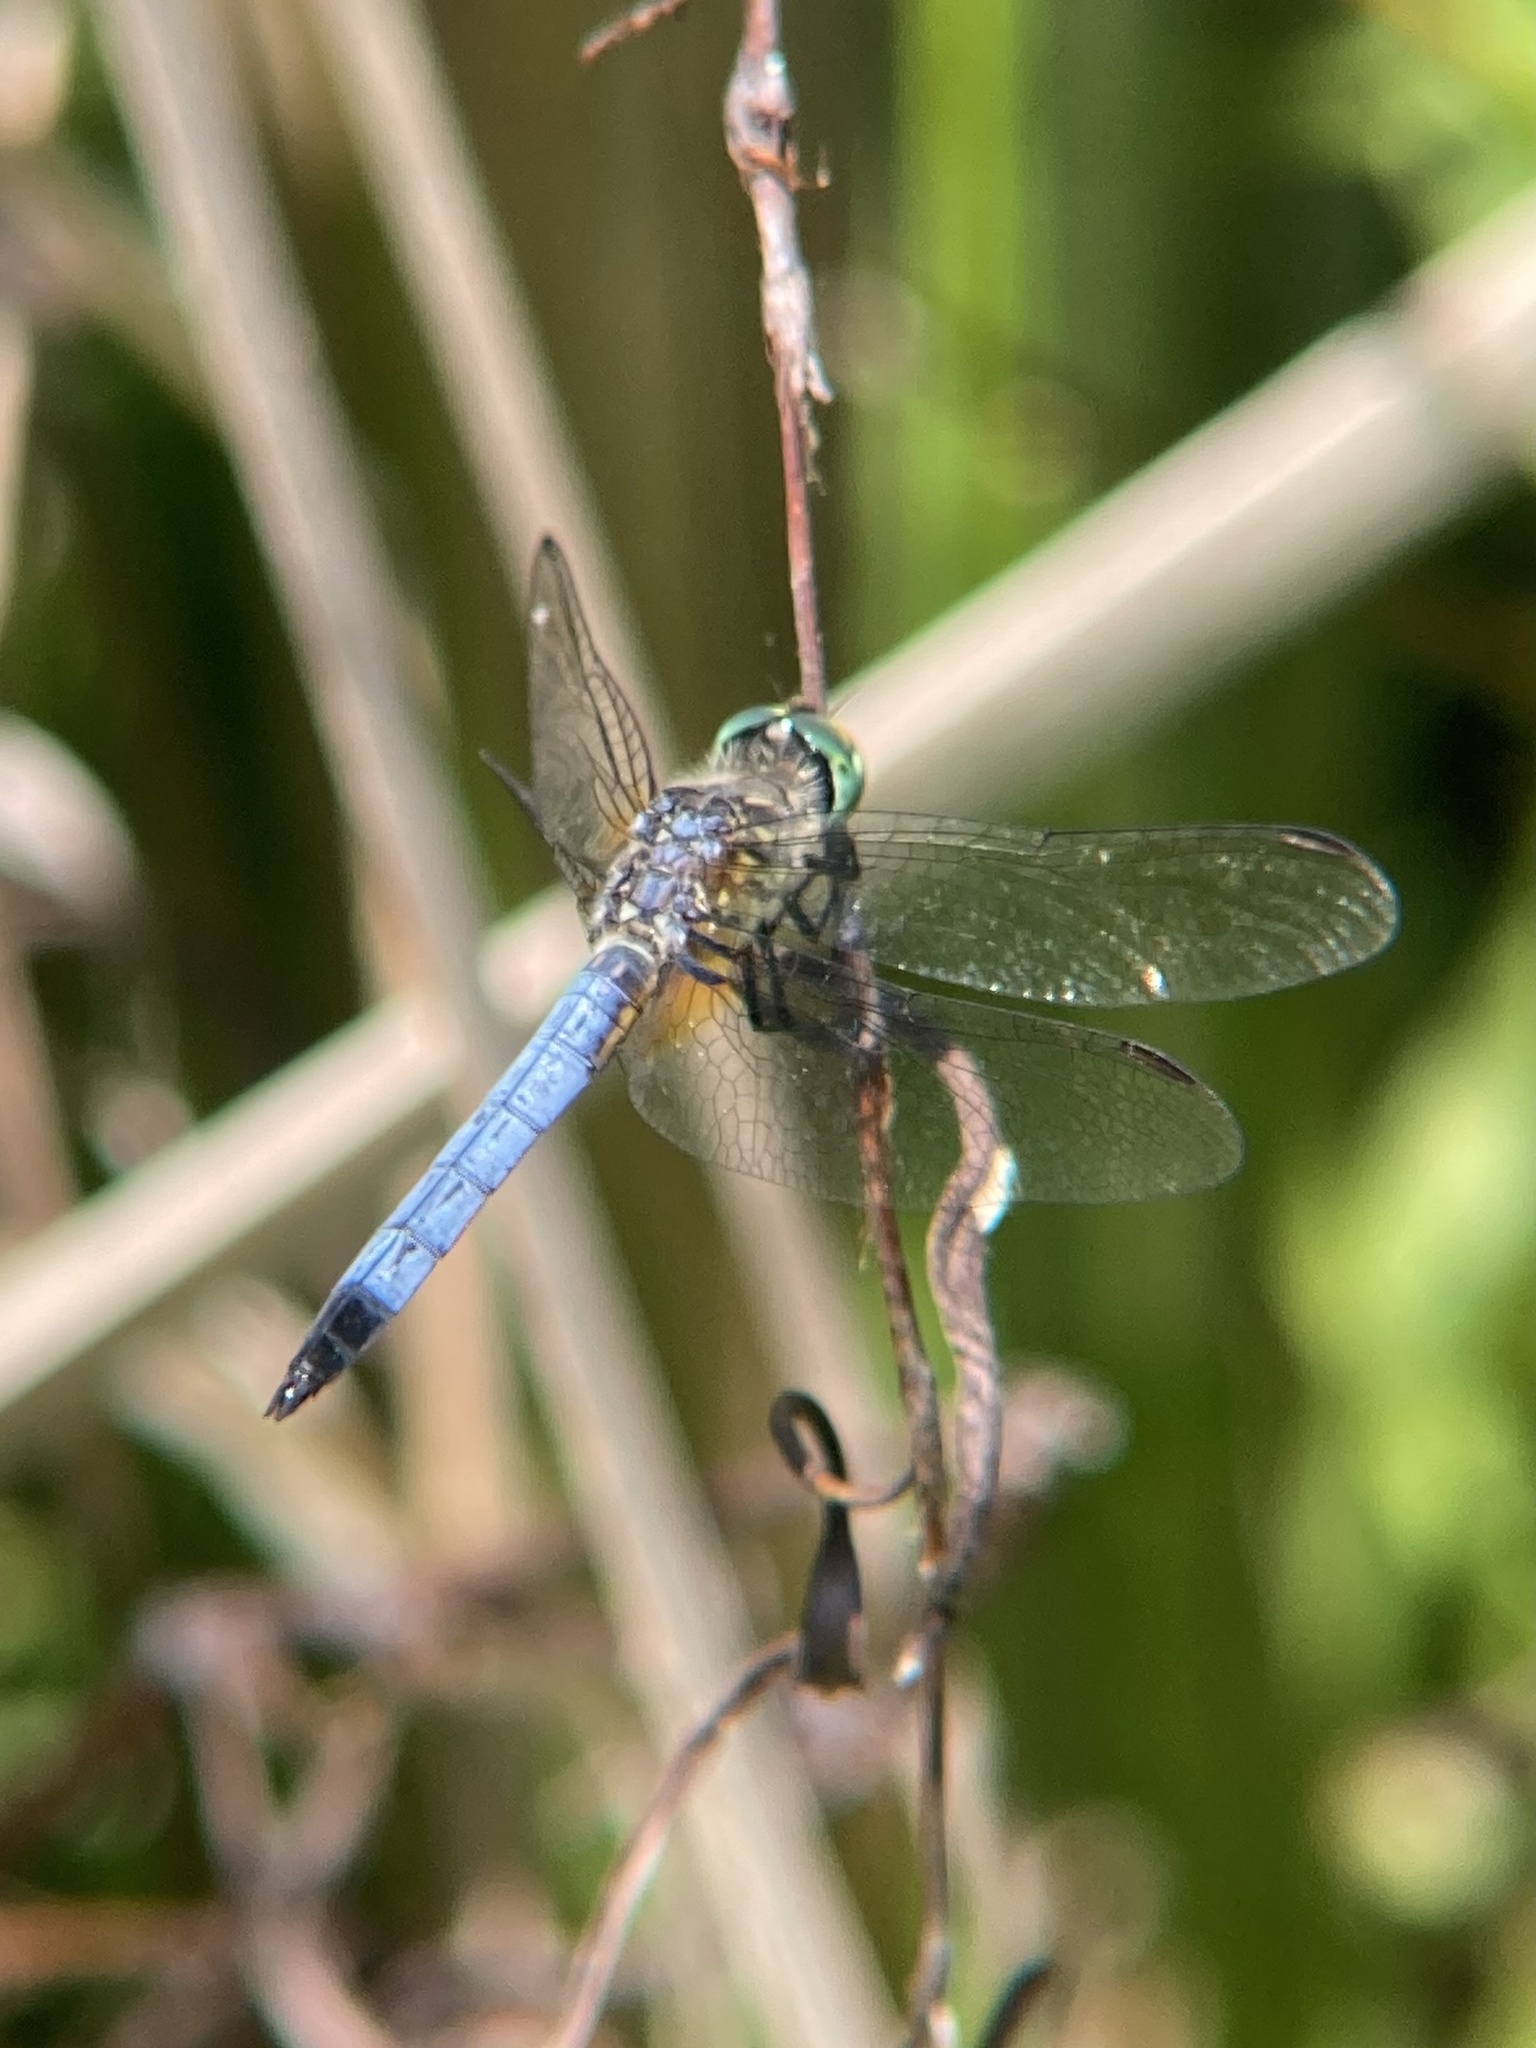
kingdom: Animalia
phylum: Arthropoda
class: Insecta
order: Odonata
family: Libellulidae
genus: Pachydiplax
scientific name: Pachydiplax longipennis
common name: Blue dasher
